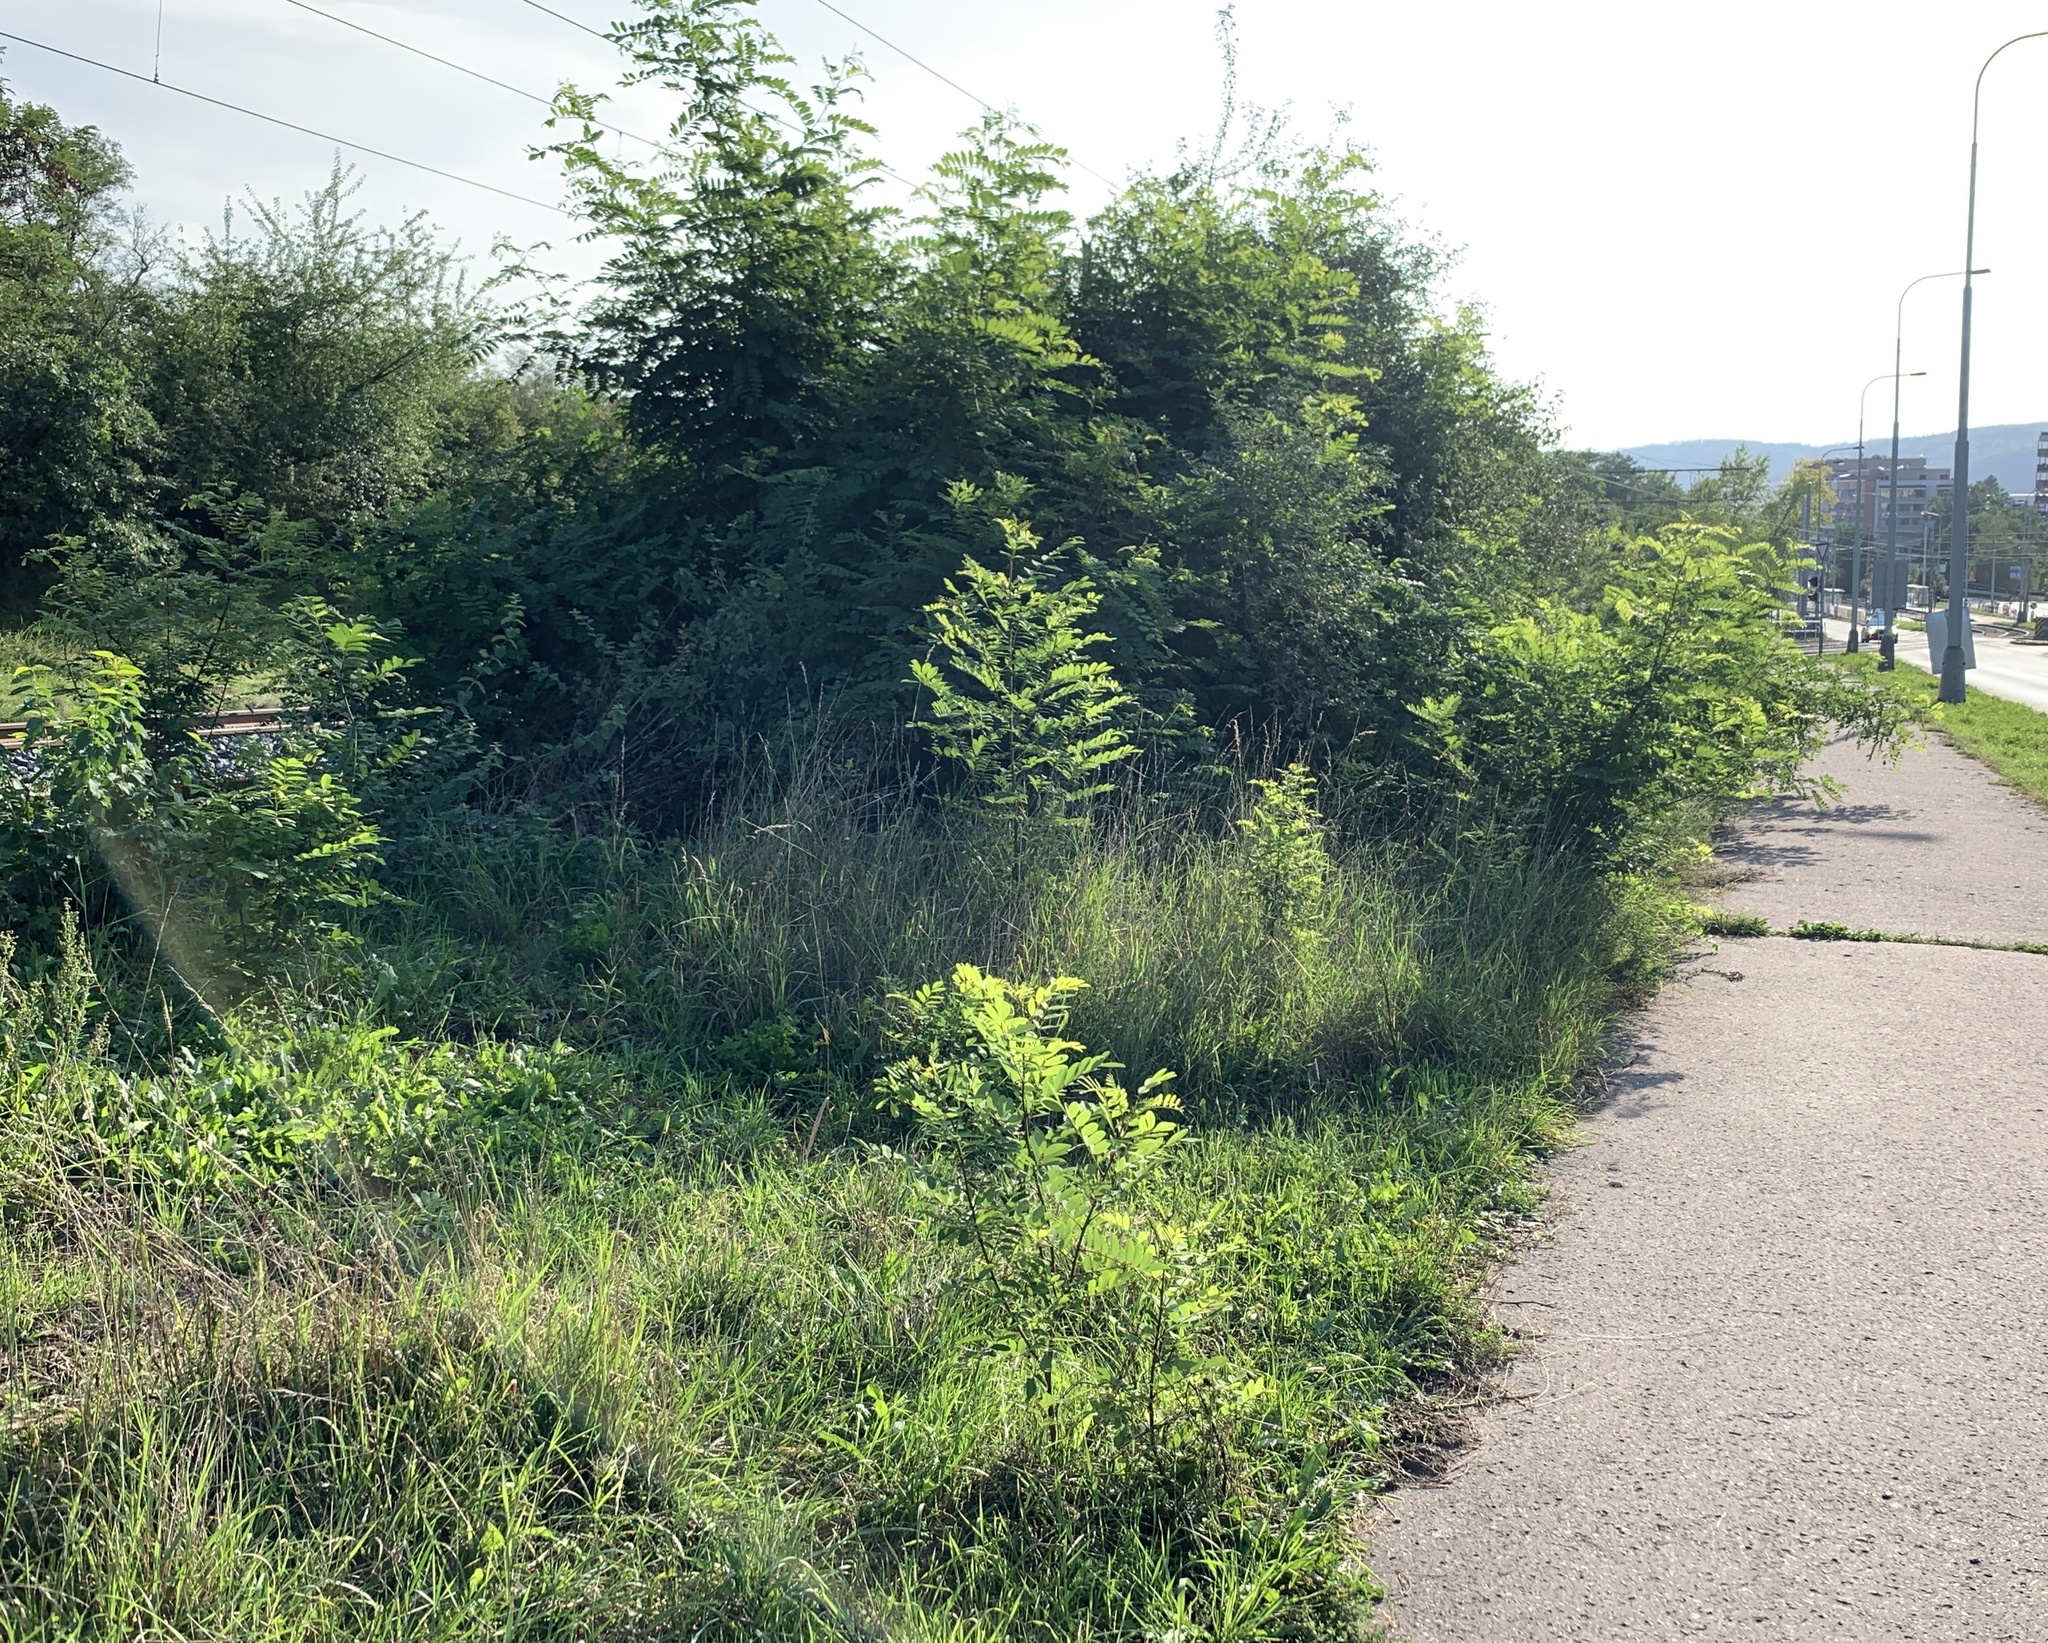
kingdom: Plantae
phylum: Tracheophyta
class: Magnoliopsida
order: Fabales
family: Fabaceae
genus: Robinia
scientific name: Robinia pseudoacacia
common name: Black locust
